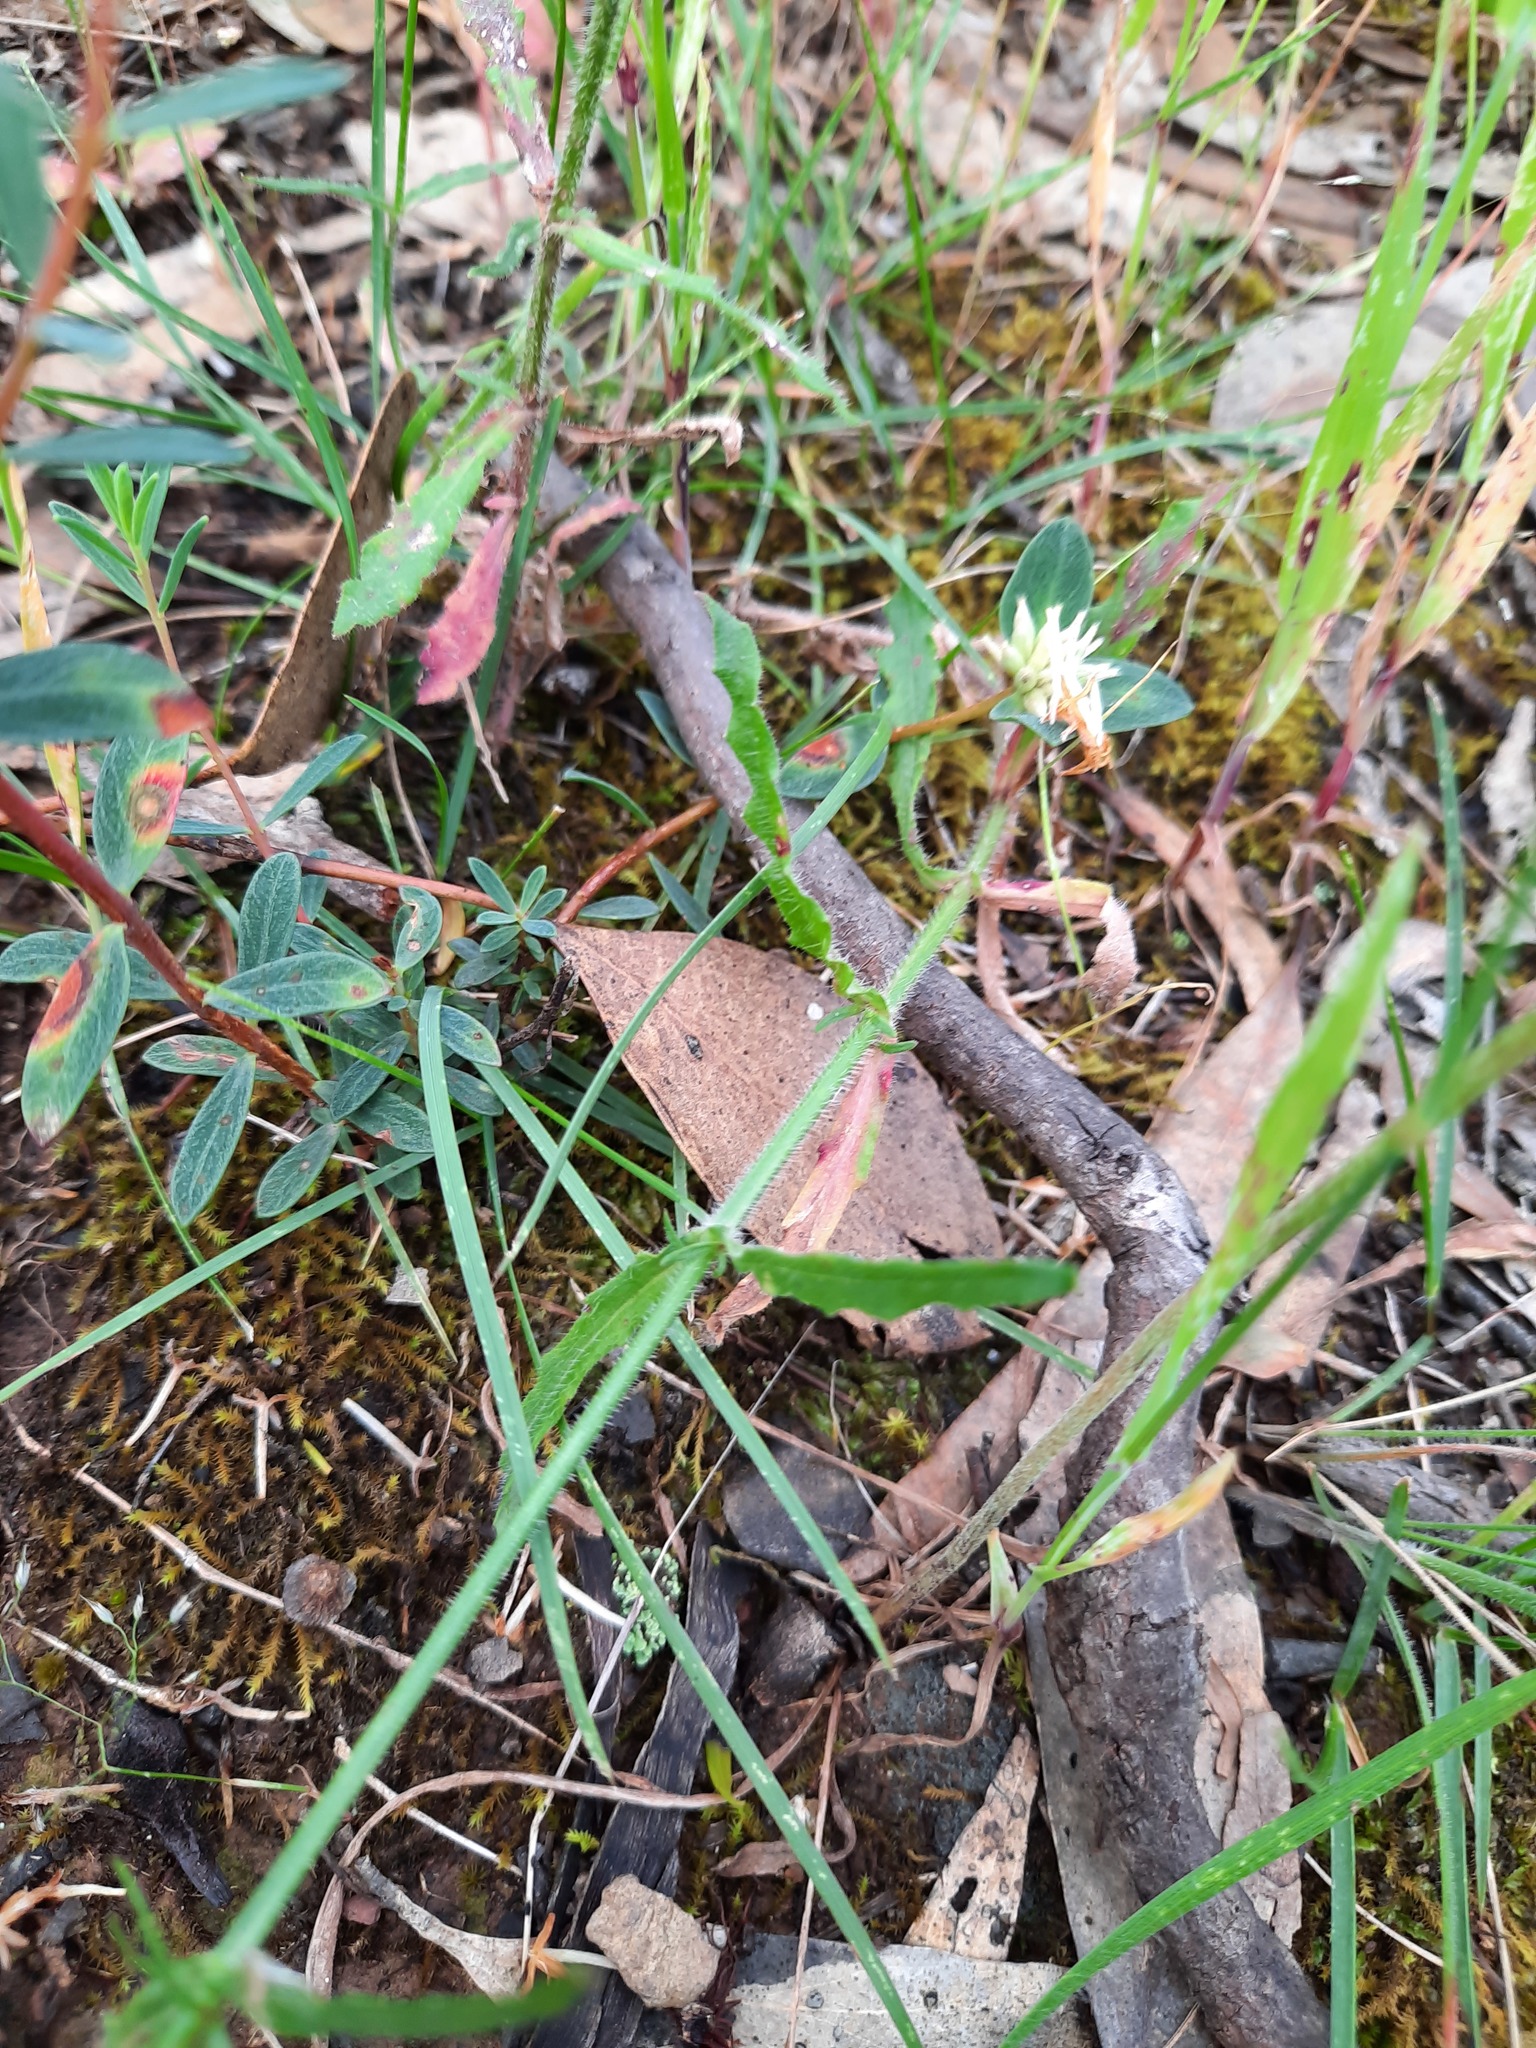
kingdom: Plantae
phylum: Tracheophyta
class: Magnoliopsida
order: Asterales
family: Campanulaceae
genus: Wahlenbergia
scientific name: Wahlenbergia stricta
